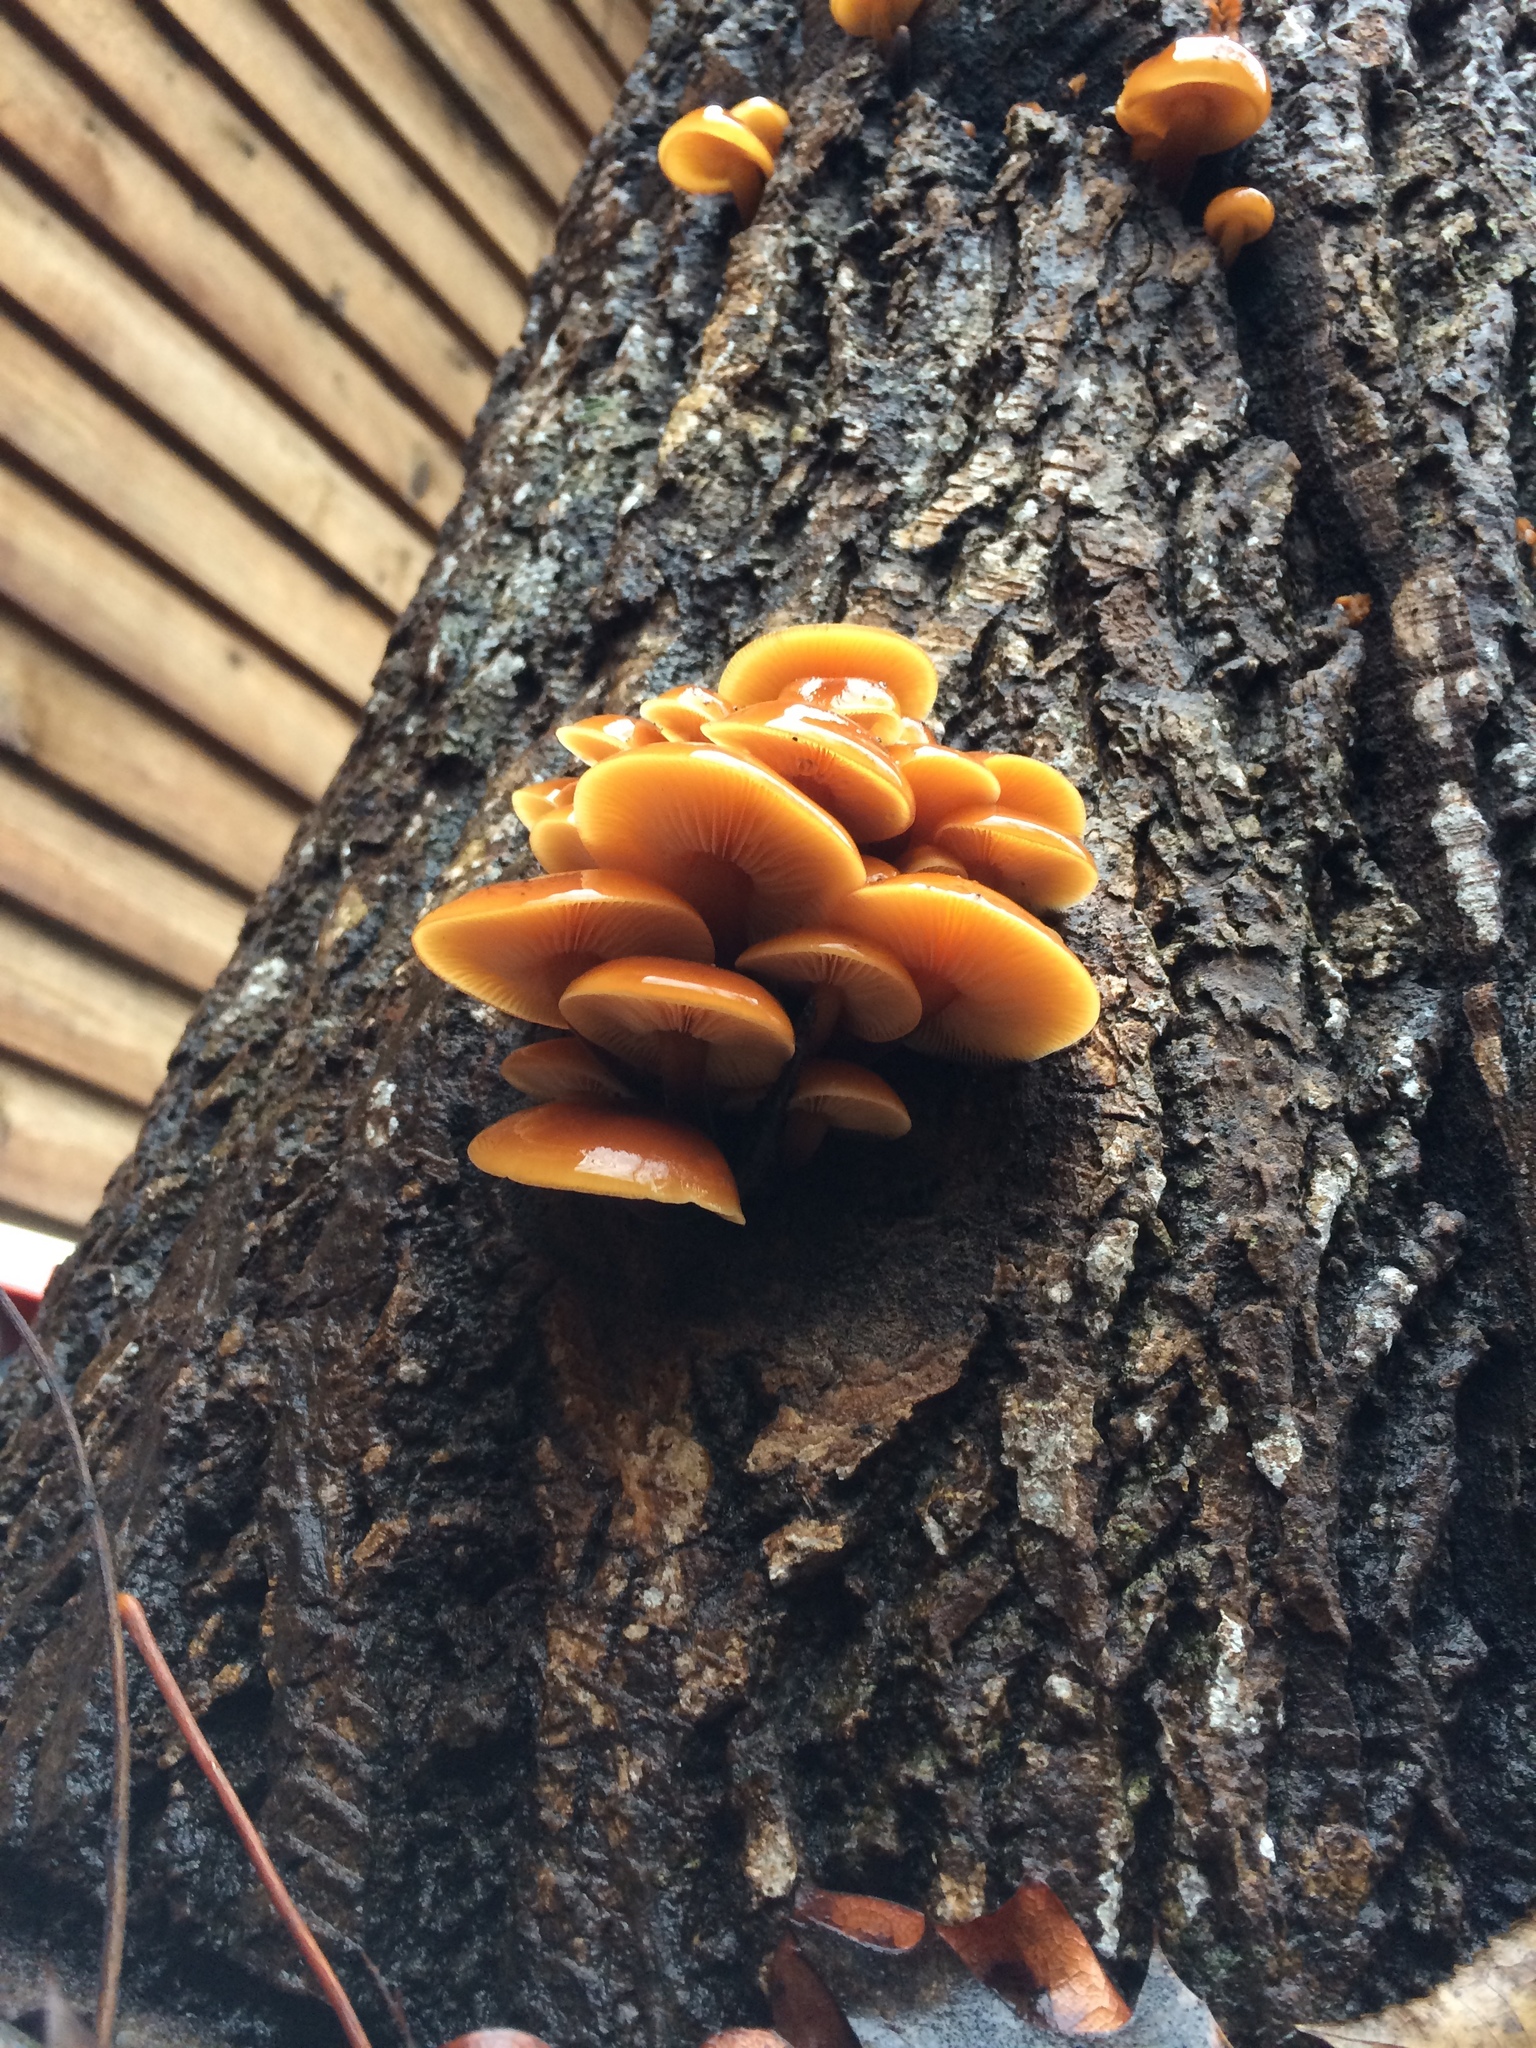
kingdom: Fungi
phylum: Basidiomycota
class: Agaricomycetes
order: Agaricales
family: Physalacriaceae
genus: Flammulina
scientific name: Flammulina populicola
